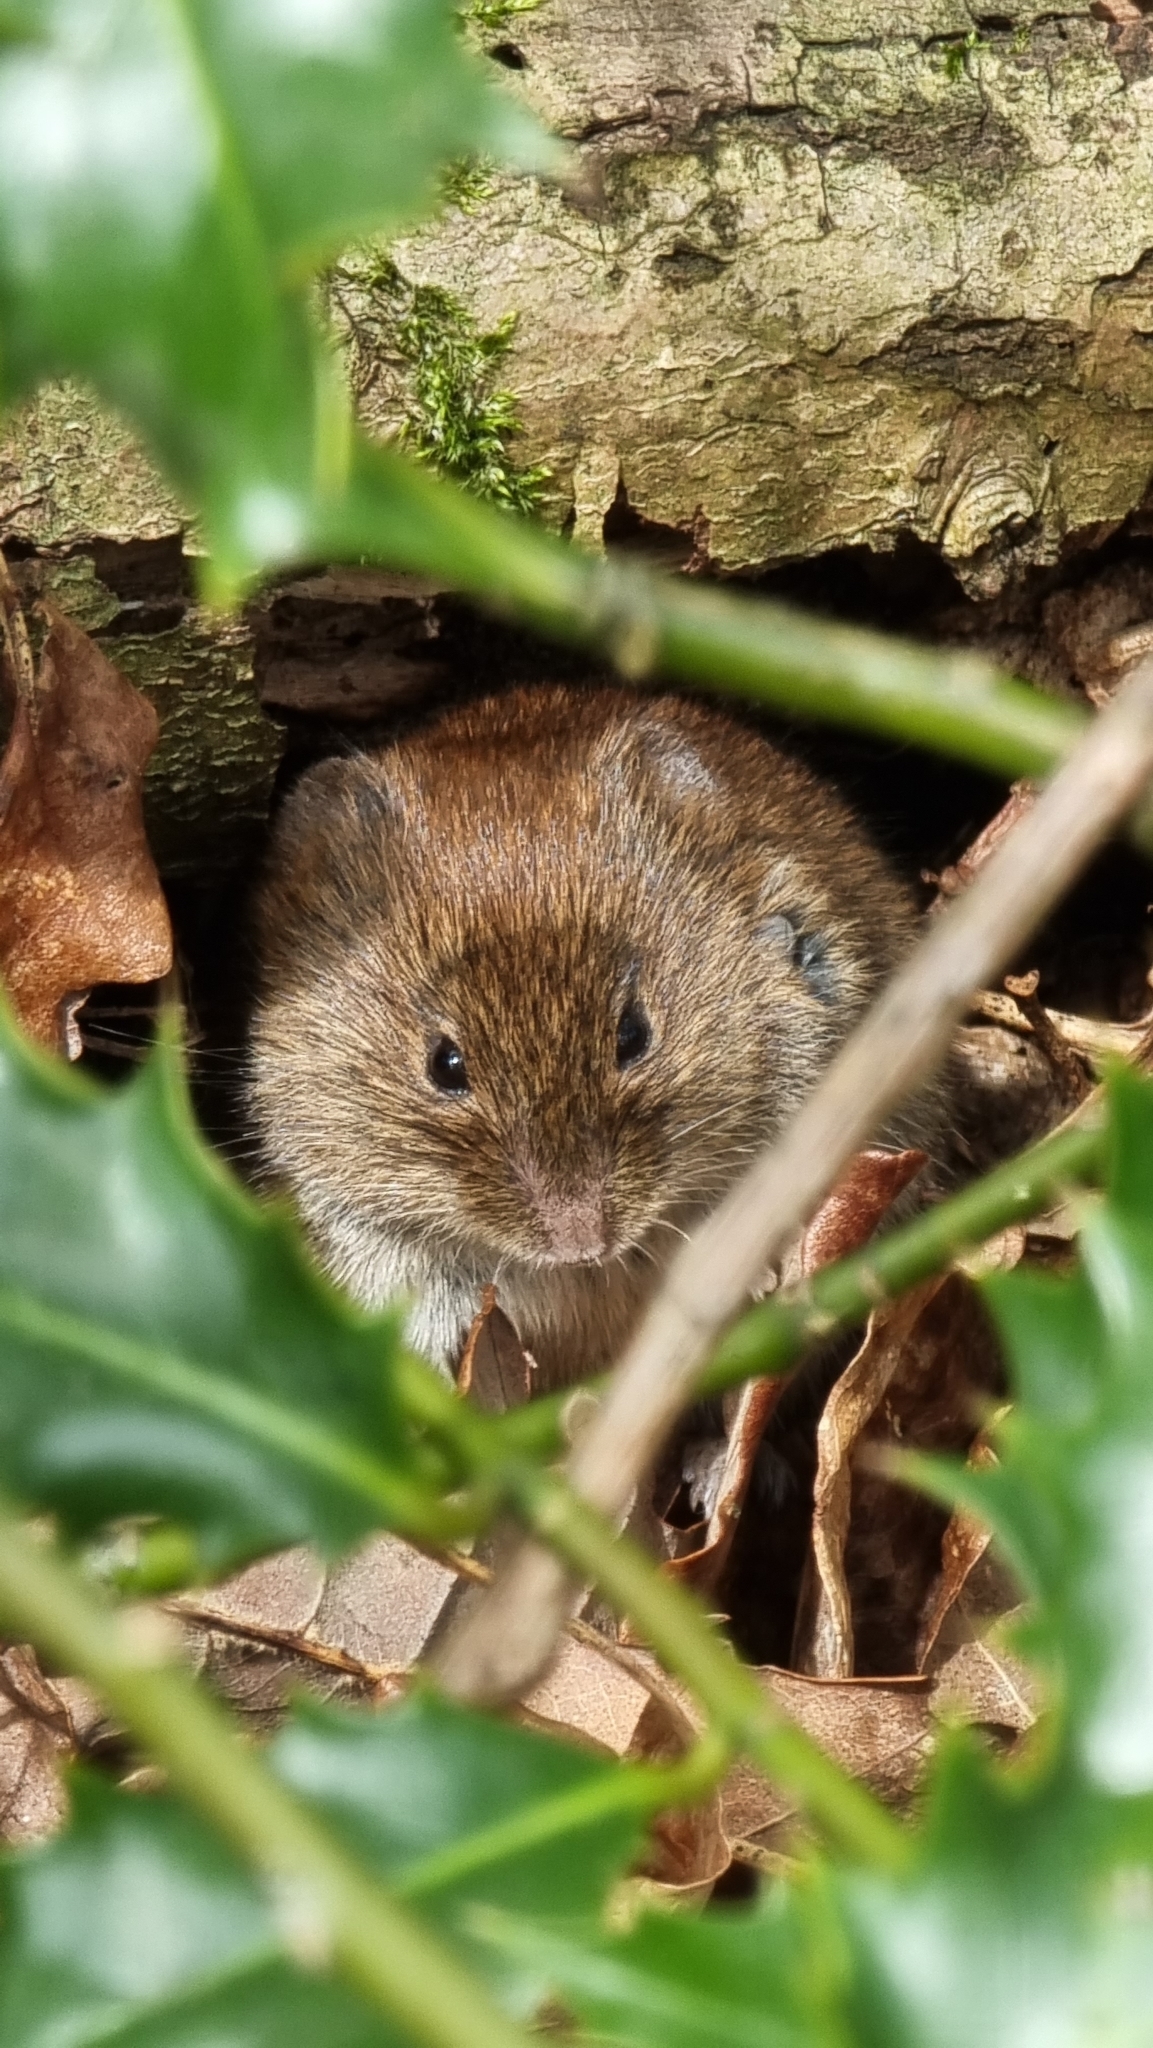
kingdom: Animalia
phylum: Chordata
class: Mammalia
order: Rodentia
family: Cricetidae
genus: Myodes
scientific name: Myodes glareolus
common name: Bank vole
